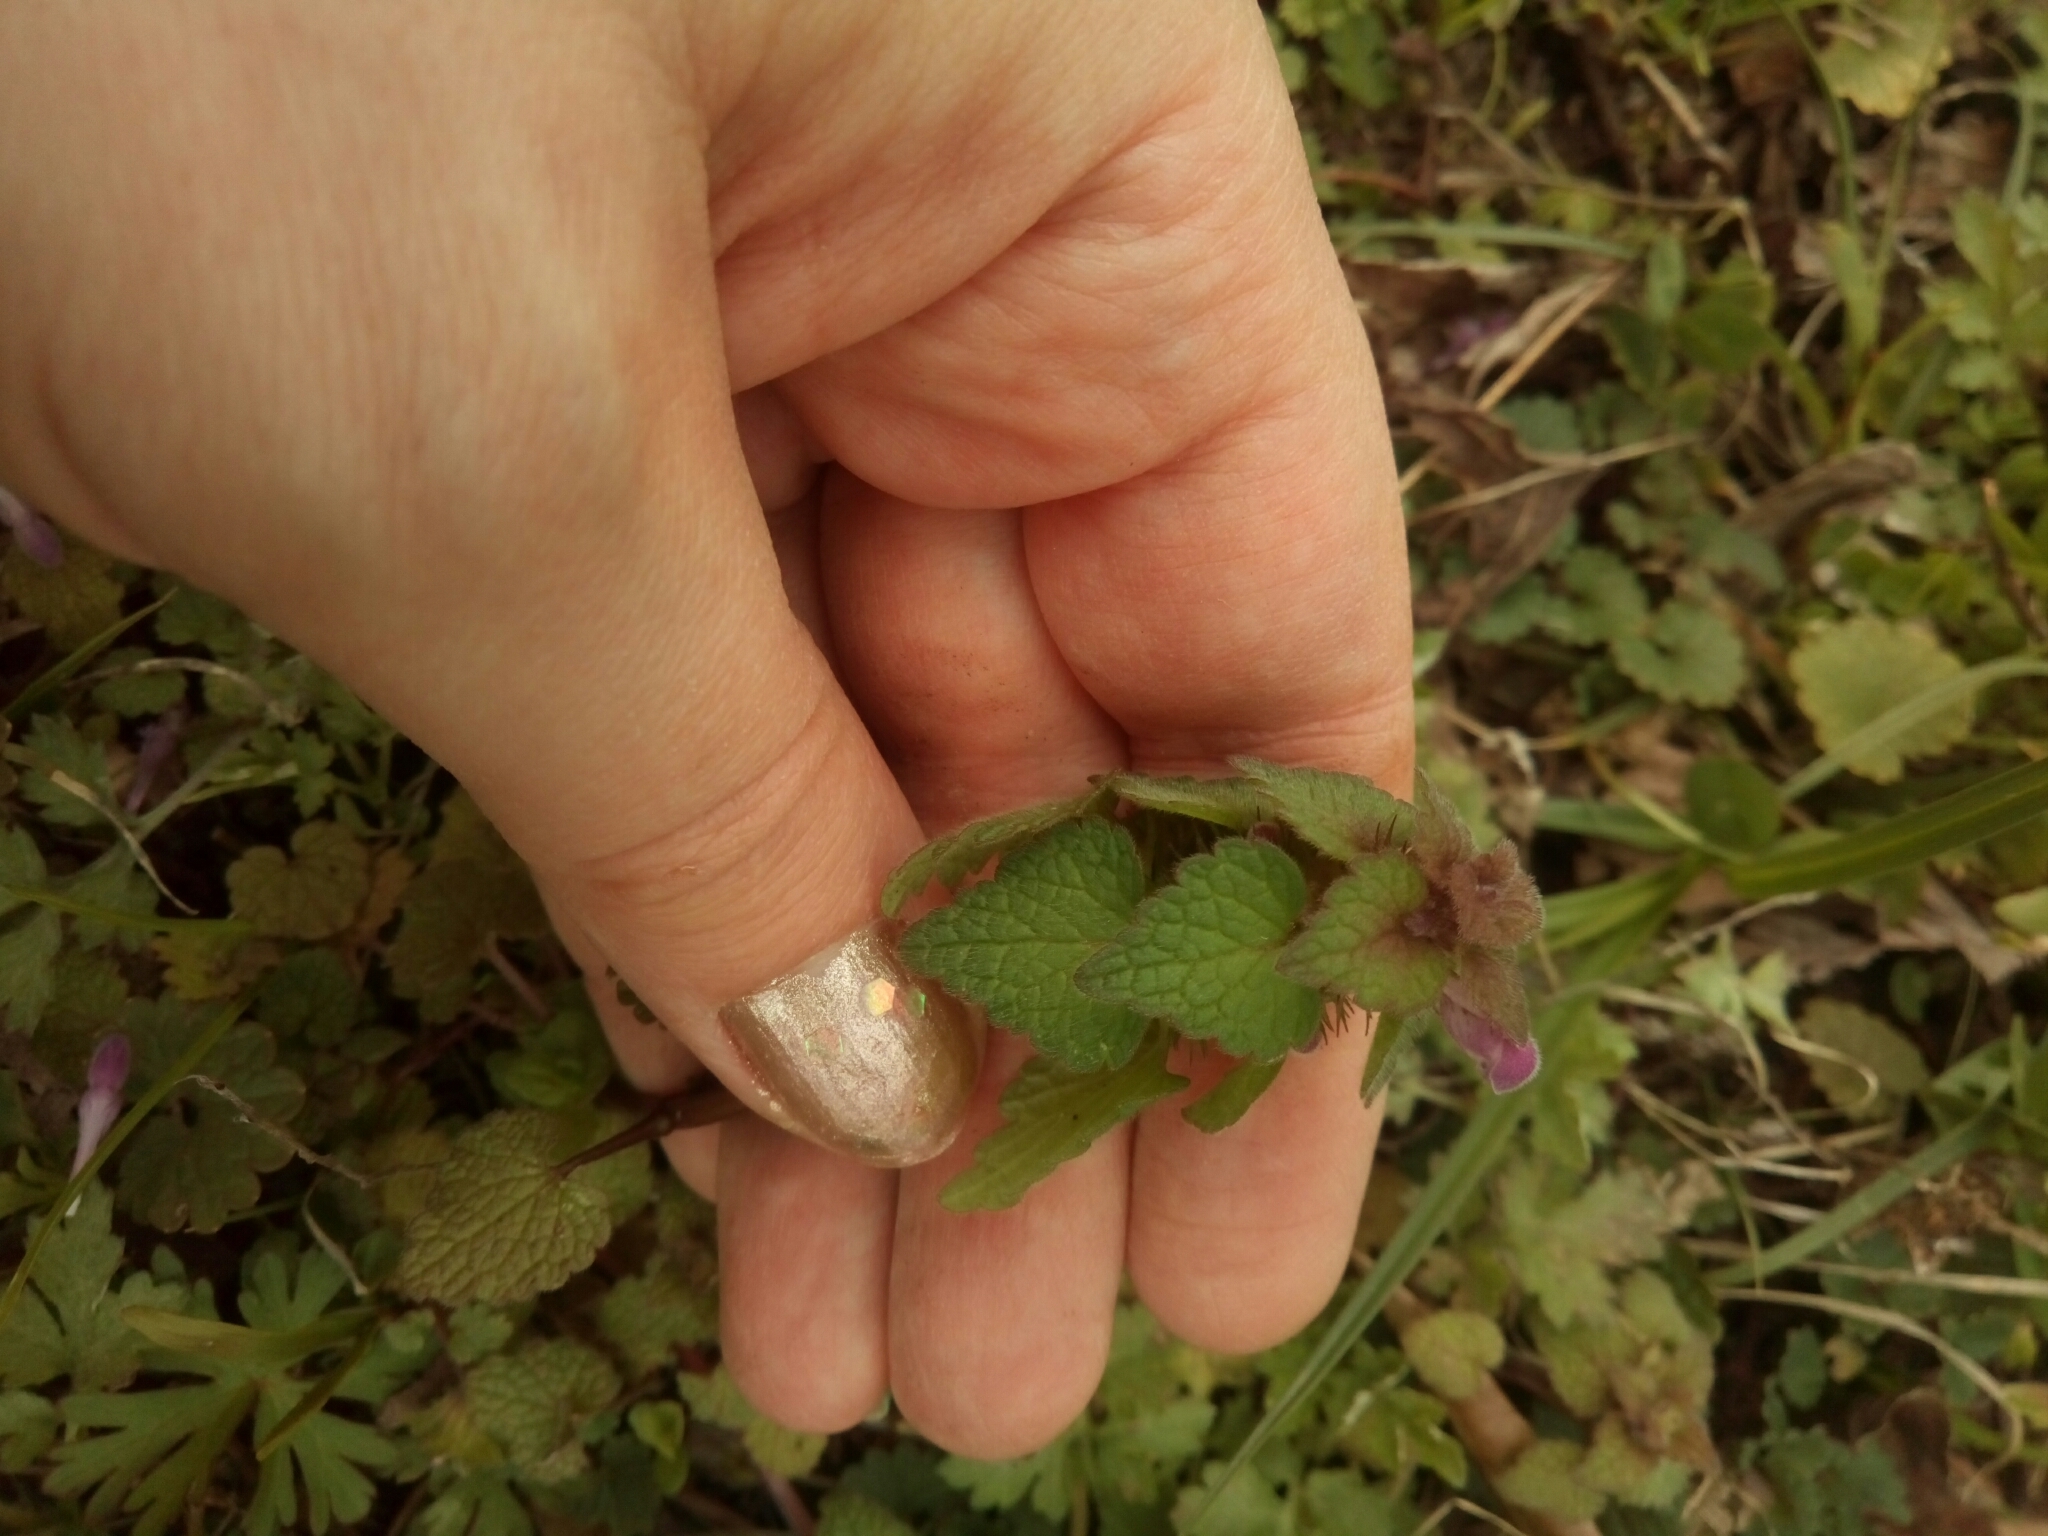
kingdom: Plantae
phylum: Tracheophyta
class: Magnoliopsida
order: Lamiales
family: Lamiaceae
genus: Lamium
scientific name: Lamium purpureum
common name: Red dead-nettle
